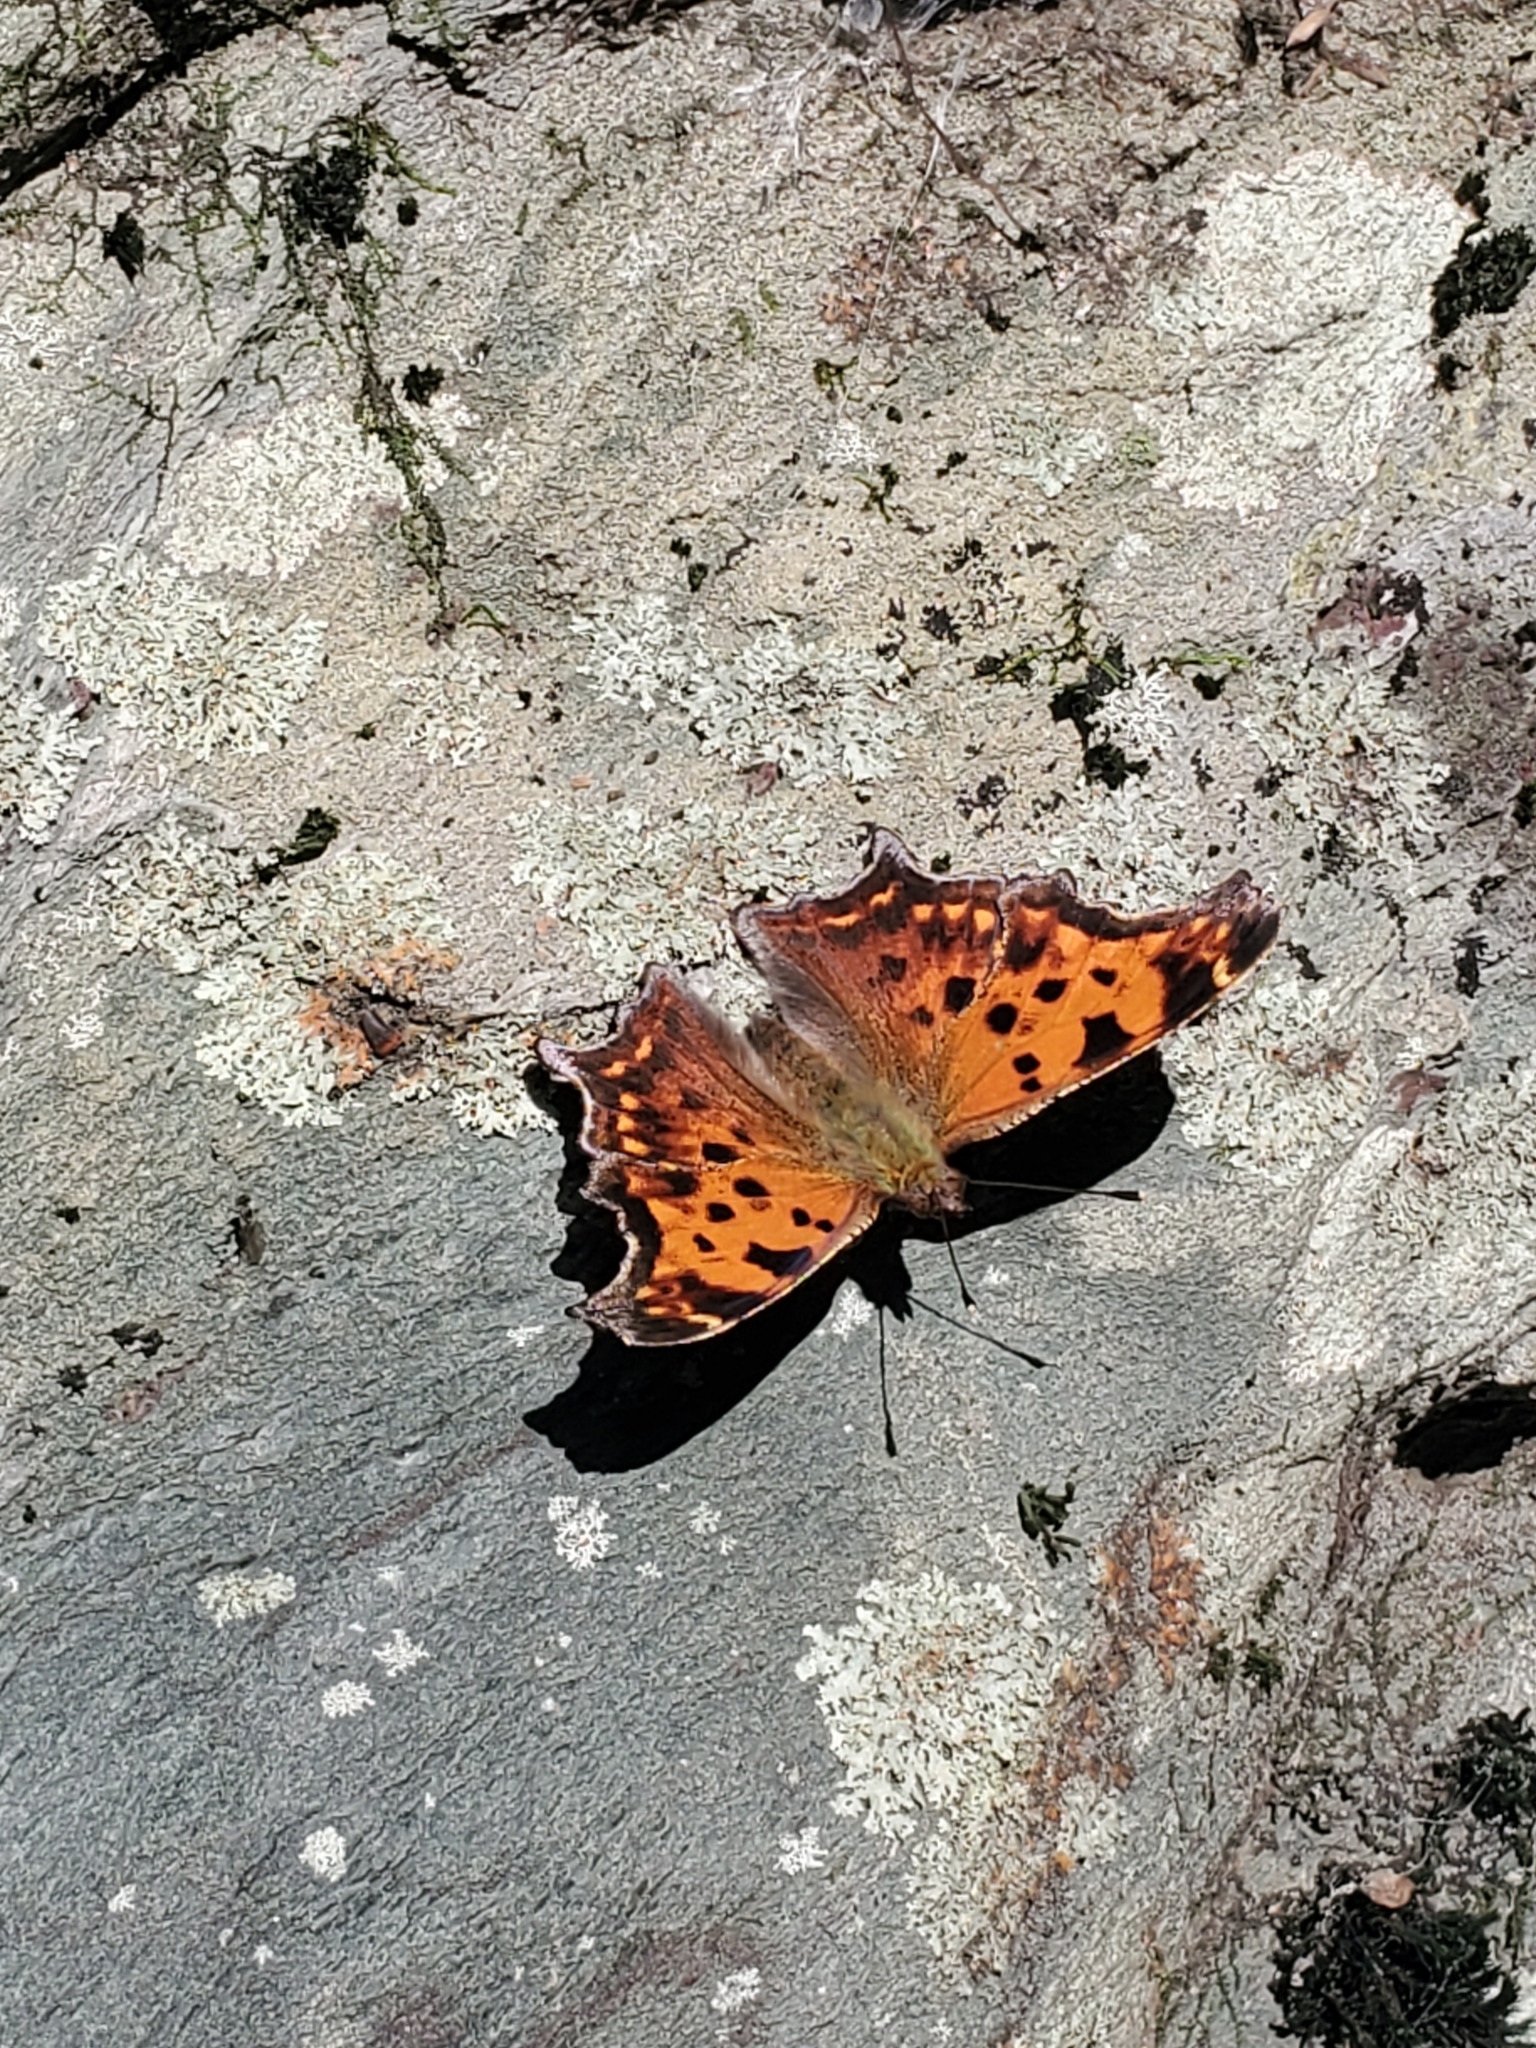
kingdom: Animalia
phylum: Arthropoda
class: Insecta
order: Lepidoptera
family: Nymphalidae
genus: Polygonia
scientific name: Polygonia comma
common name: Eastern comma
